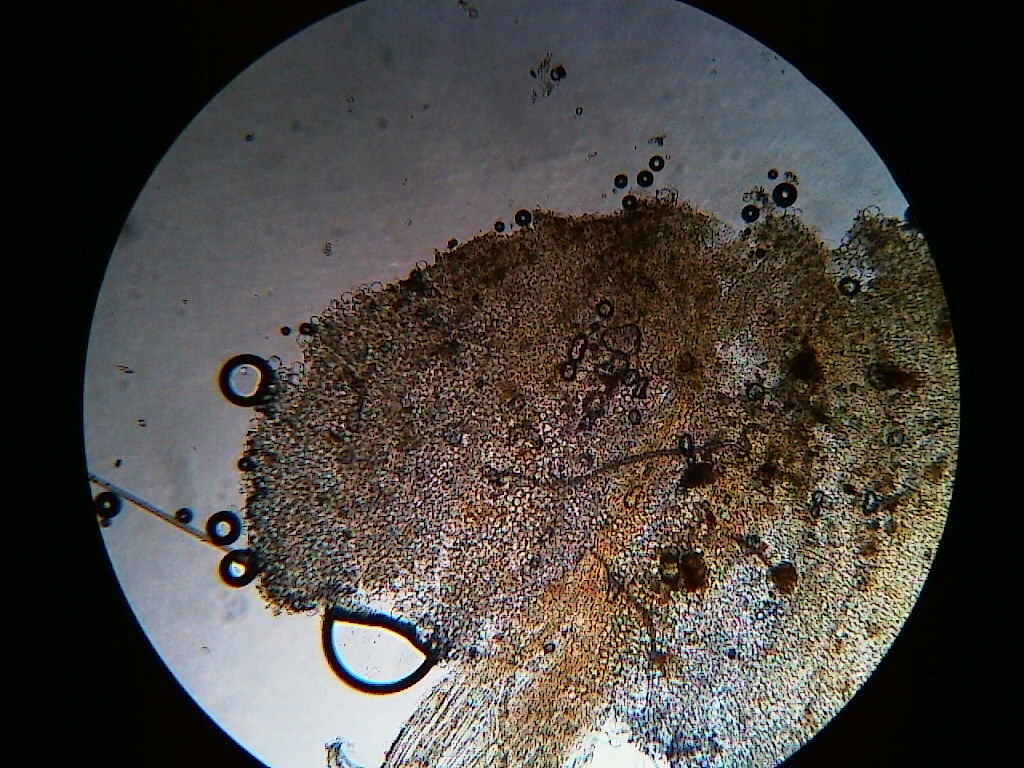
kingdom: Fungi
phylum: Basidiomycota
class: Agaricomycetes
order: Agaricales
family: Psathyrellaceae
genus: Coprinellus
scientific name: Coprinellus heptemerus
